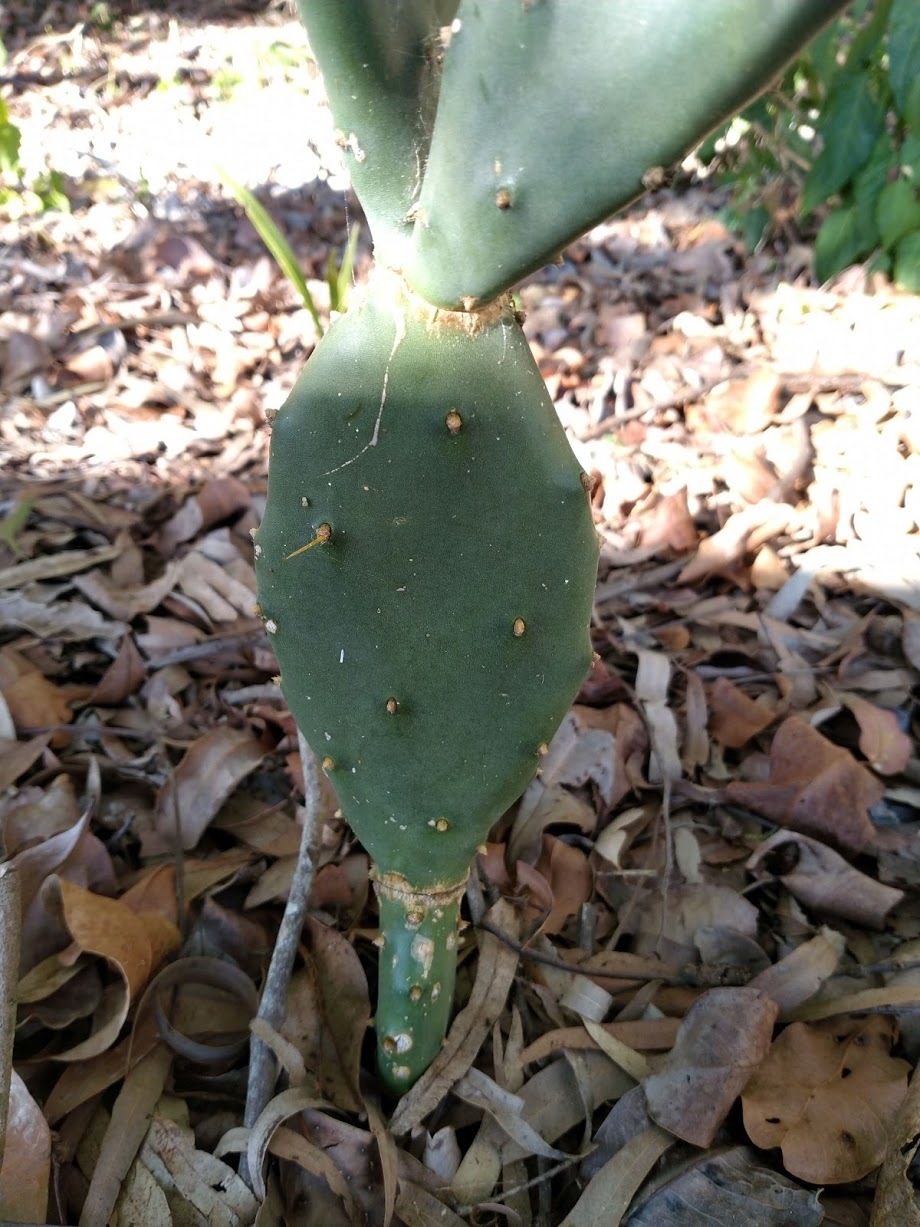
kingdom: Plantae
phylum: Tracheophyta
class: Magnoliopsida
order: Caryophyllales
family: Cactaceae
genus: Opuntia
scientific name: Opuntia stricta
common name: Erect pricklypear
